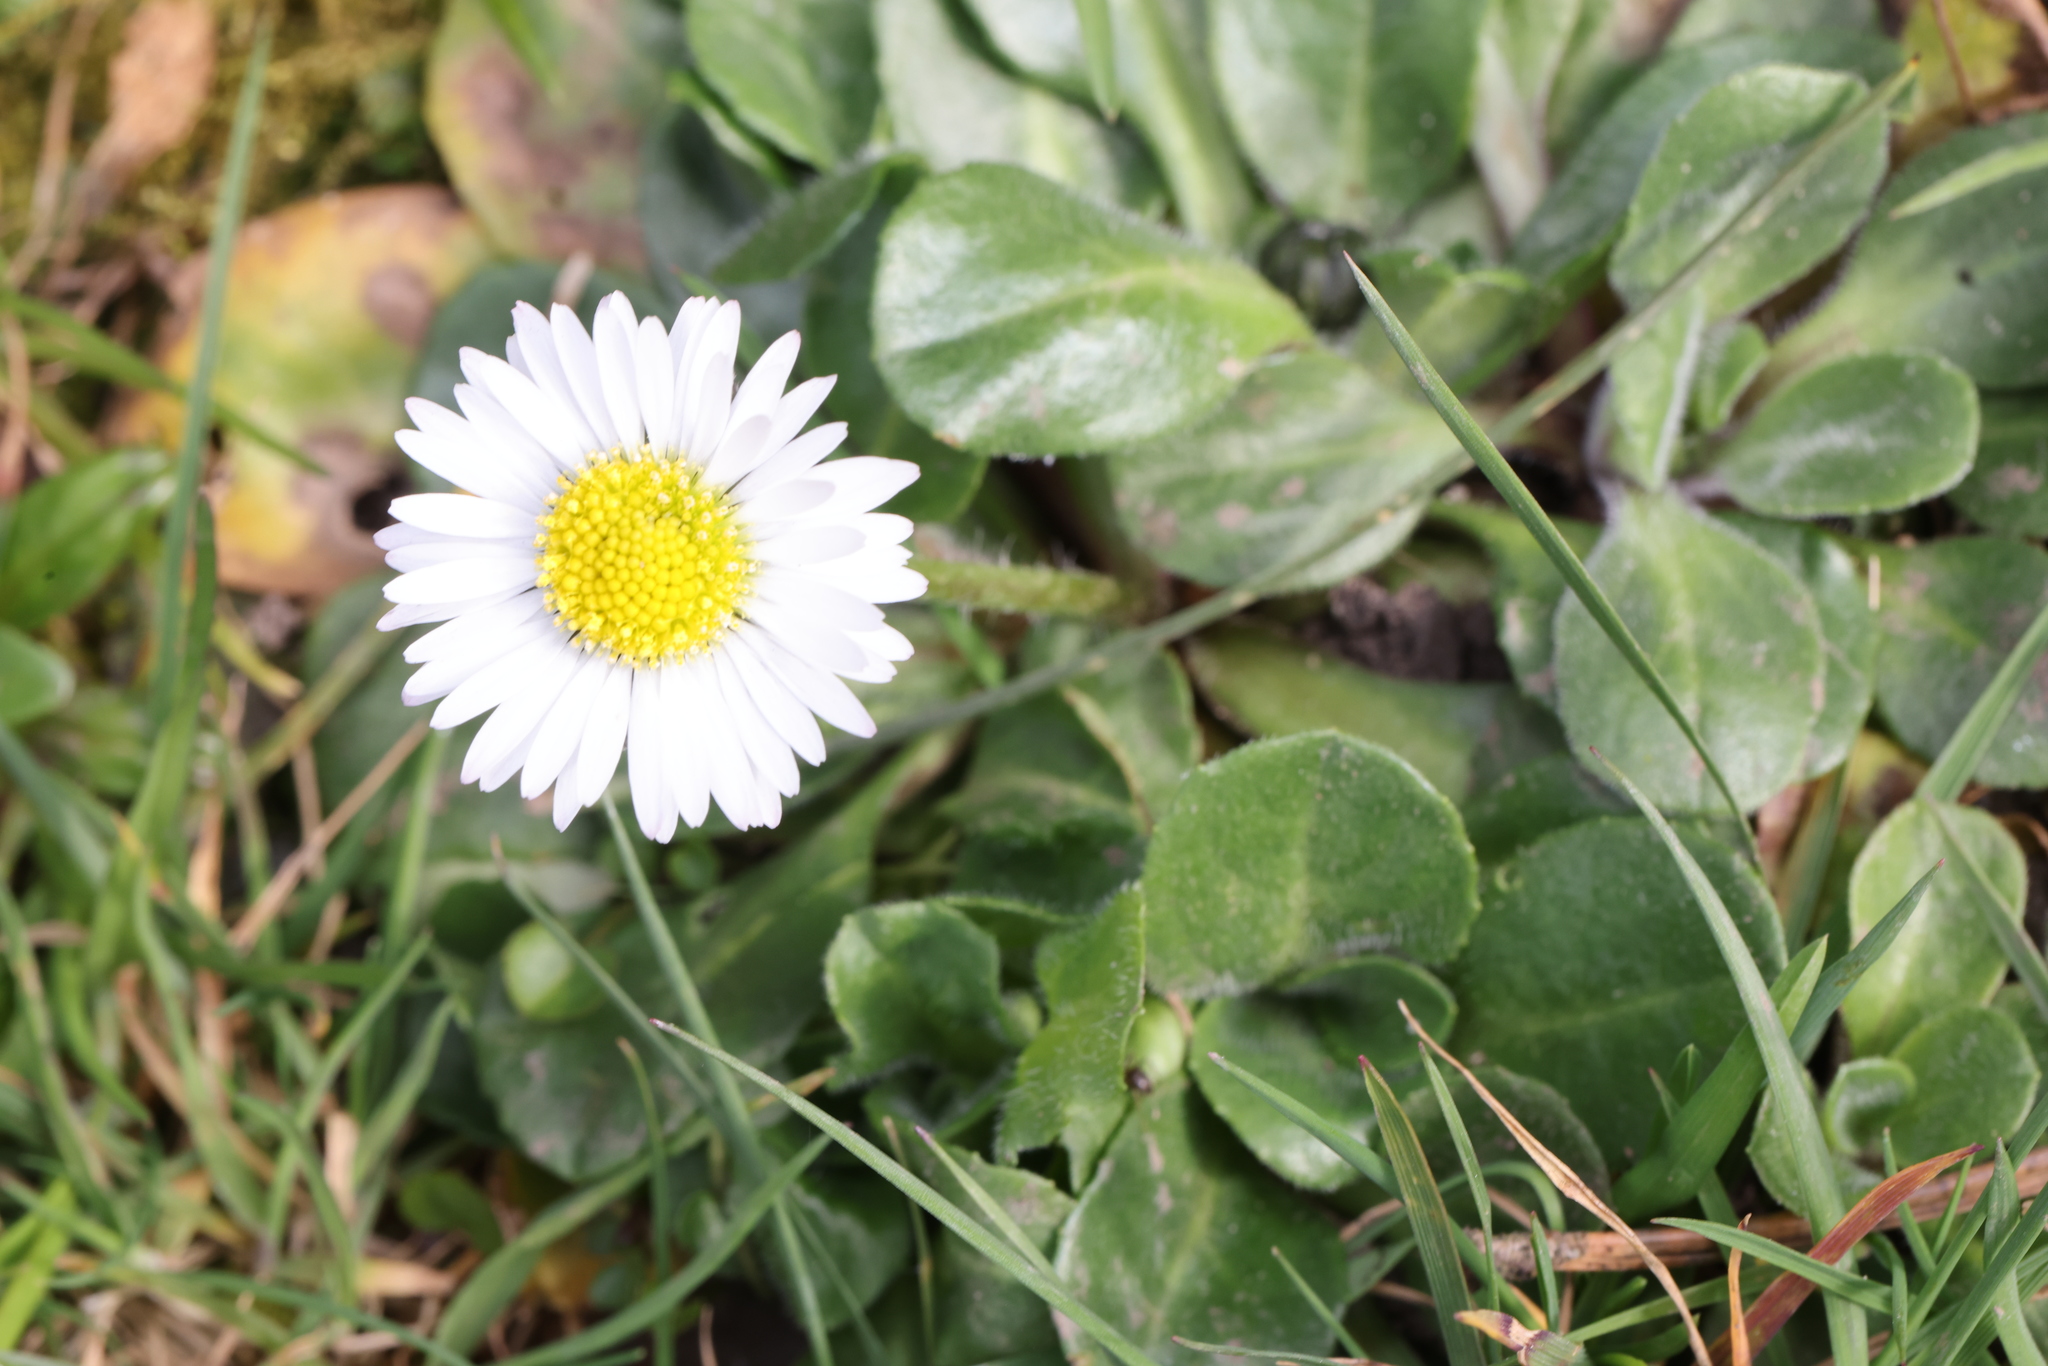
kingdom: Plantae
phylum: Tracheophyta
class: Magnoliopsida
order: Asterales
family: Asteraceae
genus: Bellis
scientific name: Bellis perennis
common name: Lawndaisy
